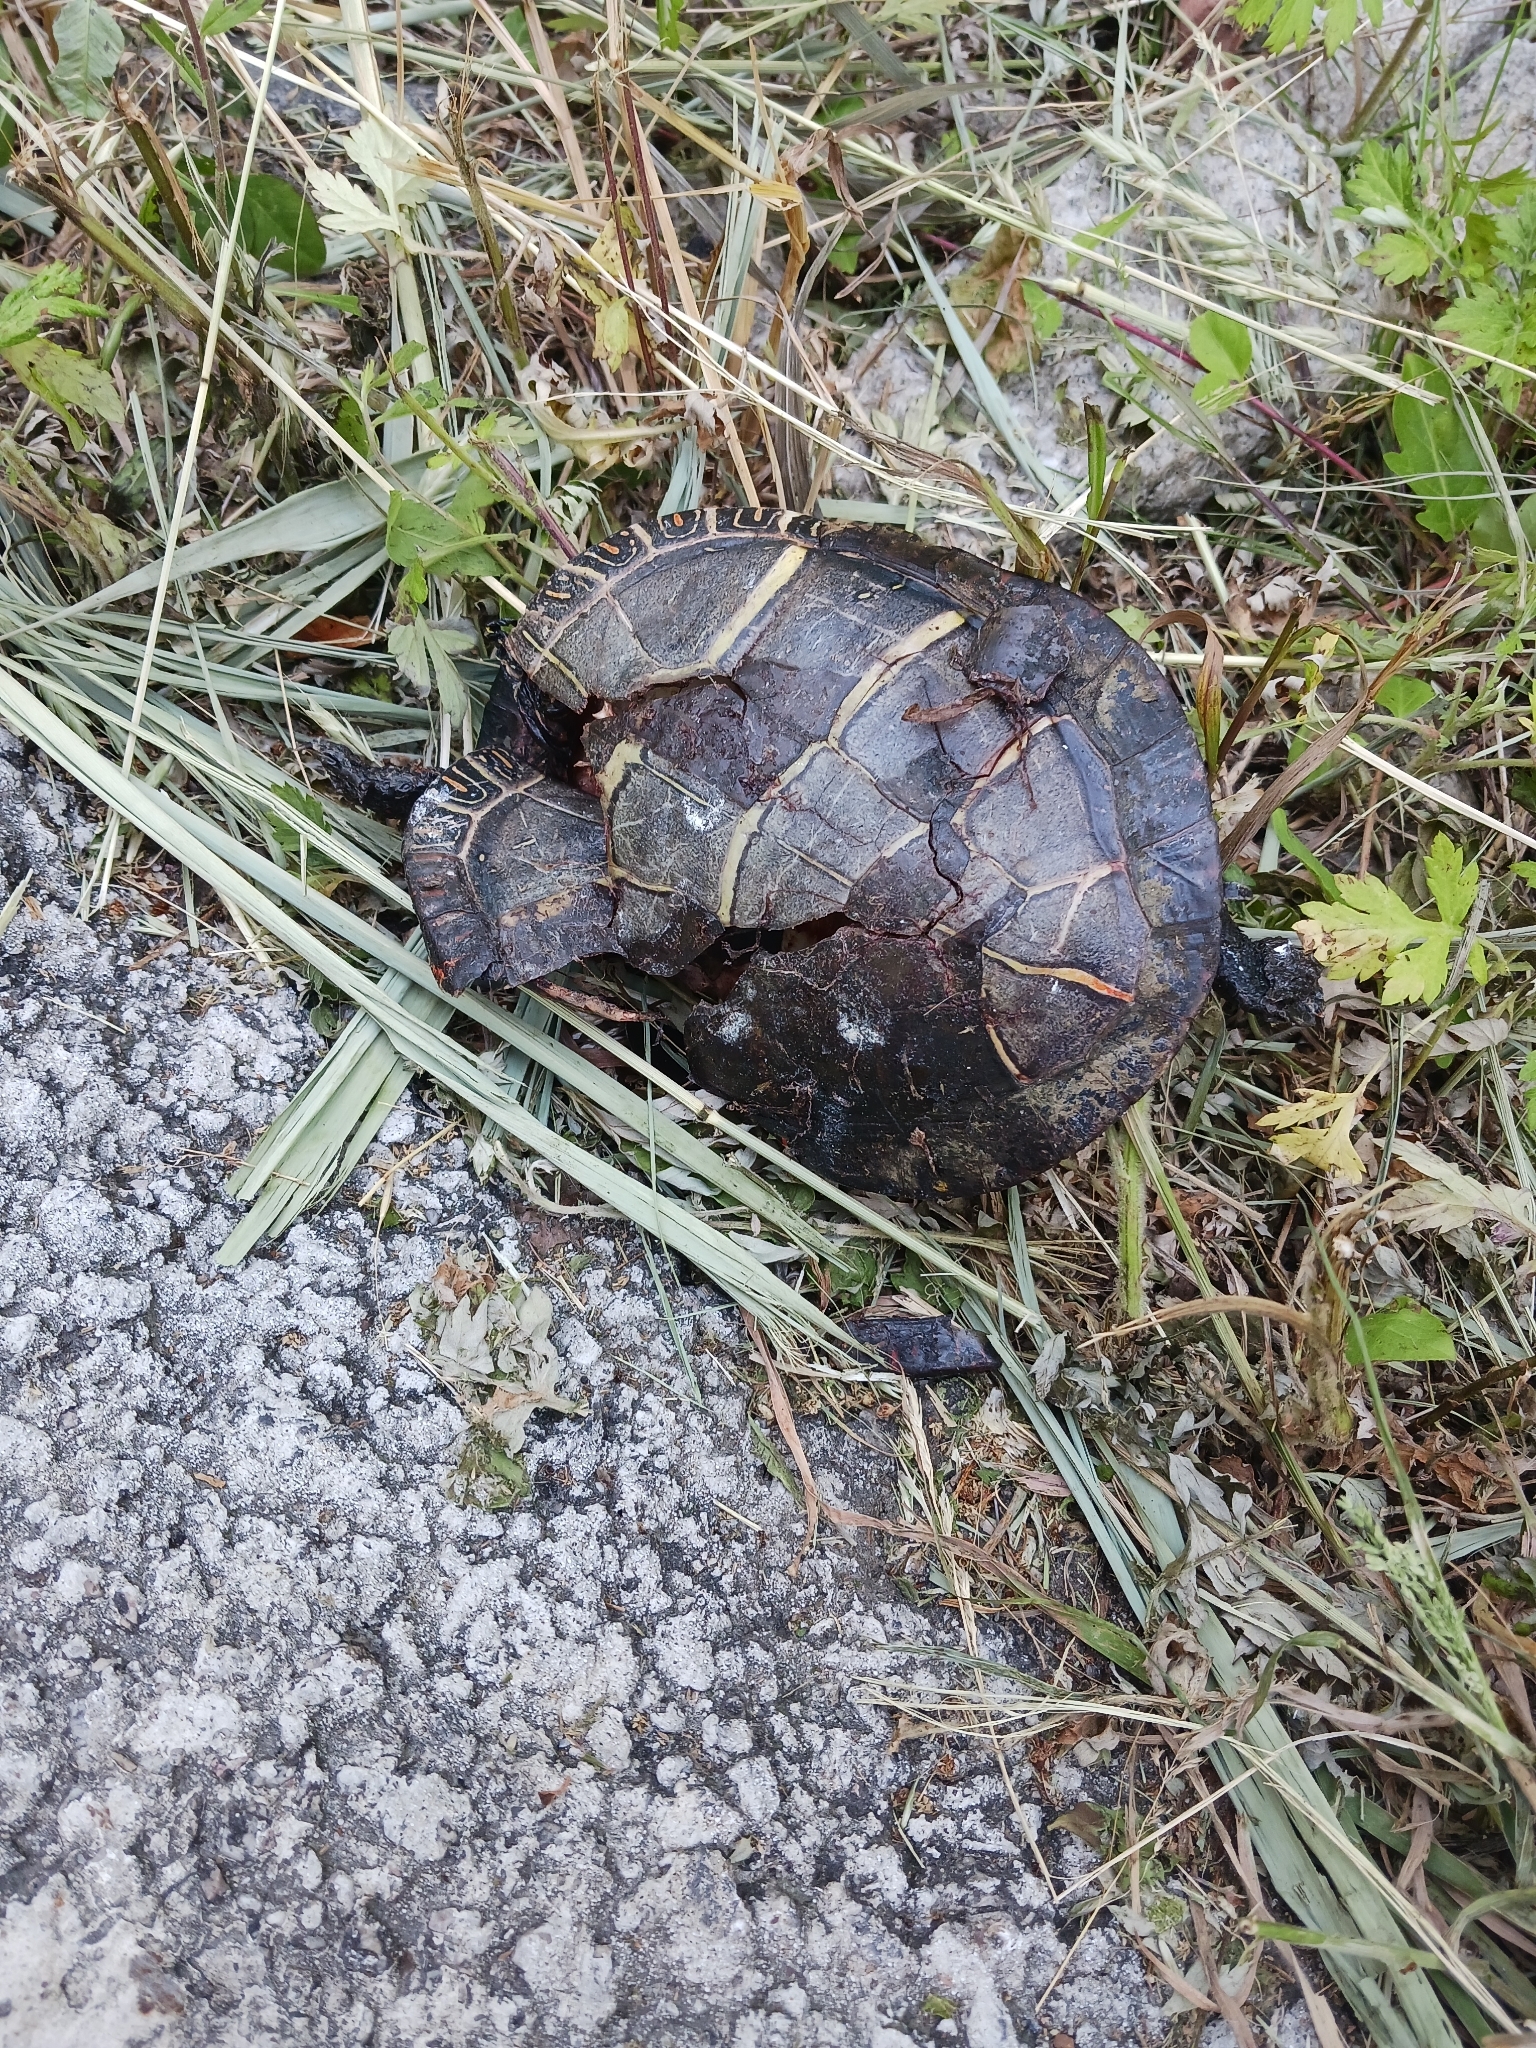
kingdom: Animalia
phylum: Chordata
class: Testudines
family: Emydidae
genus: Chrysemys
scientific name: Chrysemys picta
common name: Painted turtle
